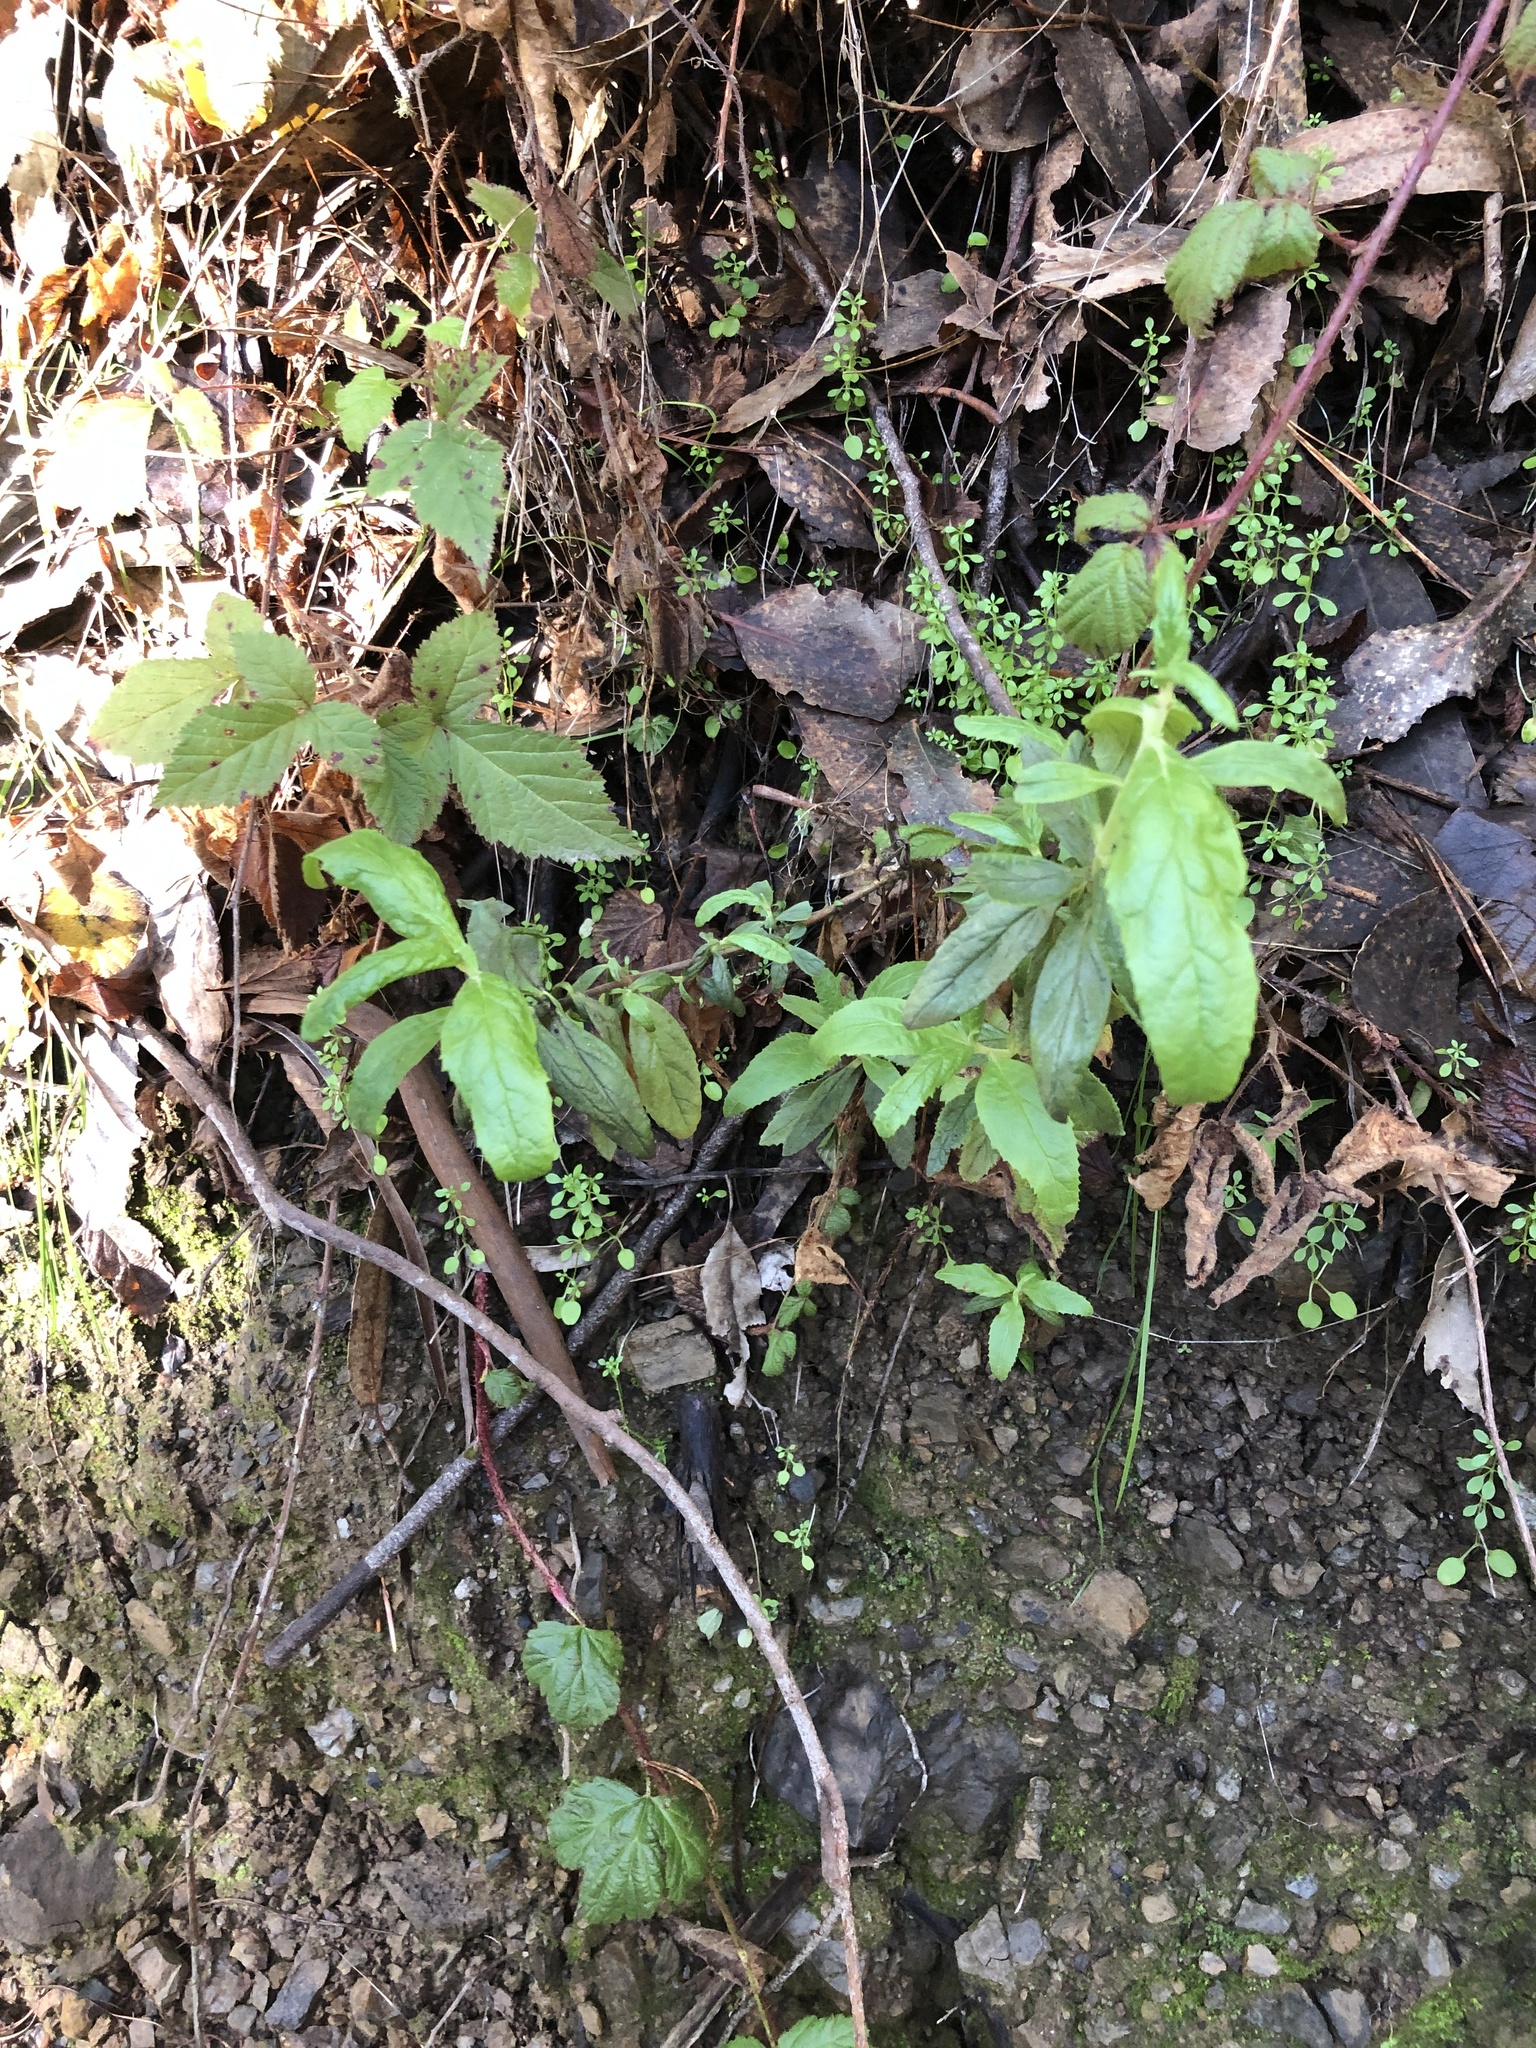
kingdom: Plantae
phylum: Tracheophyta
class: Magnoliopsida
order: Lamiales
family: Phrymaceae
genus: Diplacus
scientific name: Diplacus aurantiacus
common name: Bush monkey-flower
